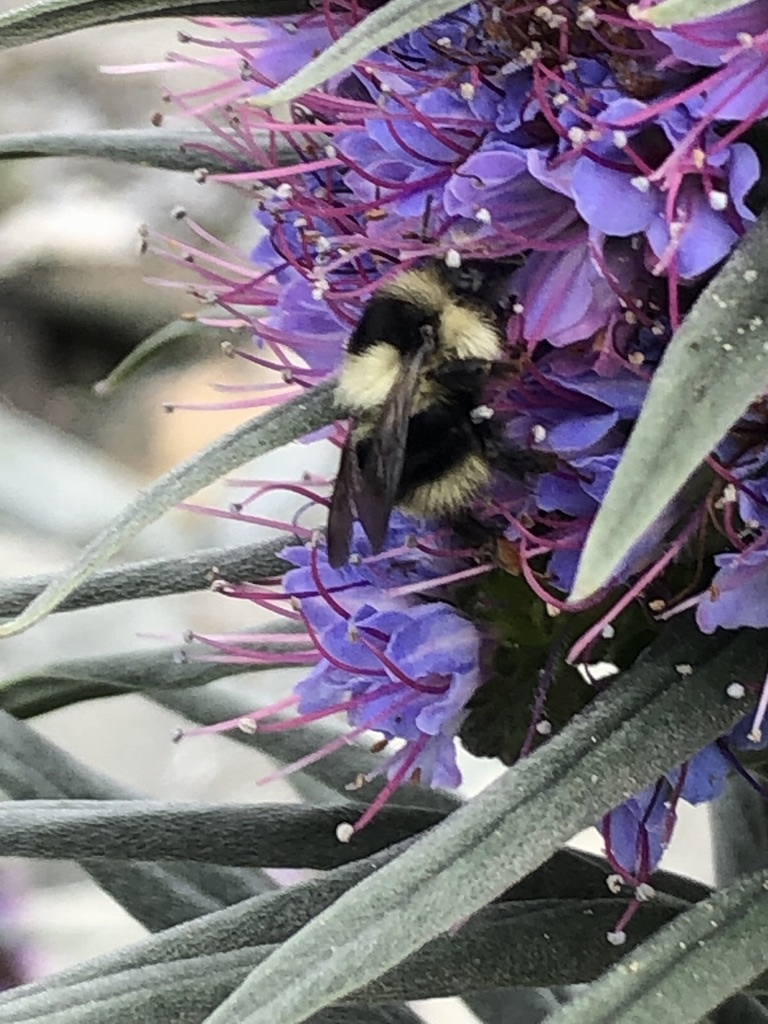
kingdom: Animalia
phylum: Arthropoda
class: Insecta
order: Hymenoptera
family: Apidae
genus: Bombus
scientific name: Bombus melanopygus
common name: Black tail bumble bee
